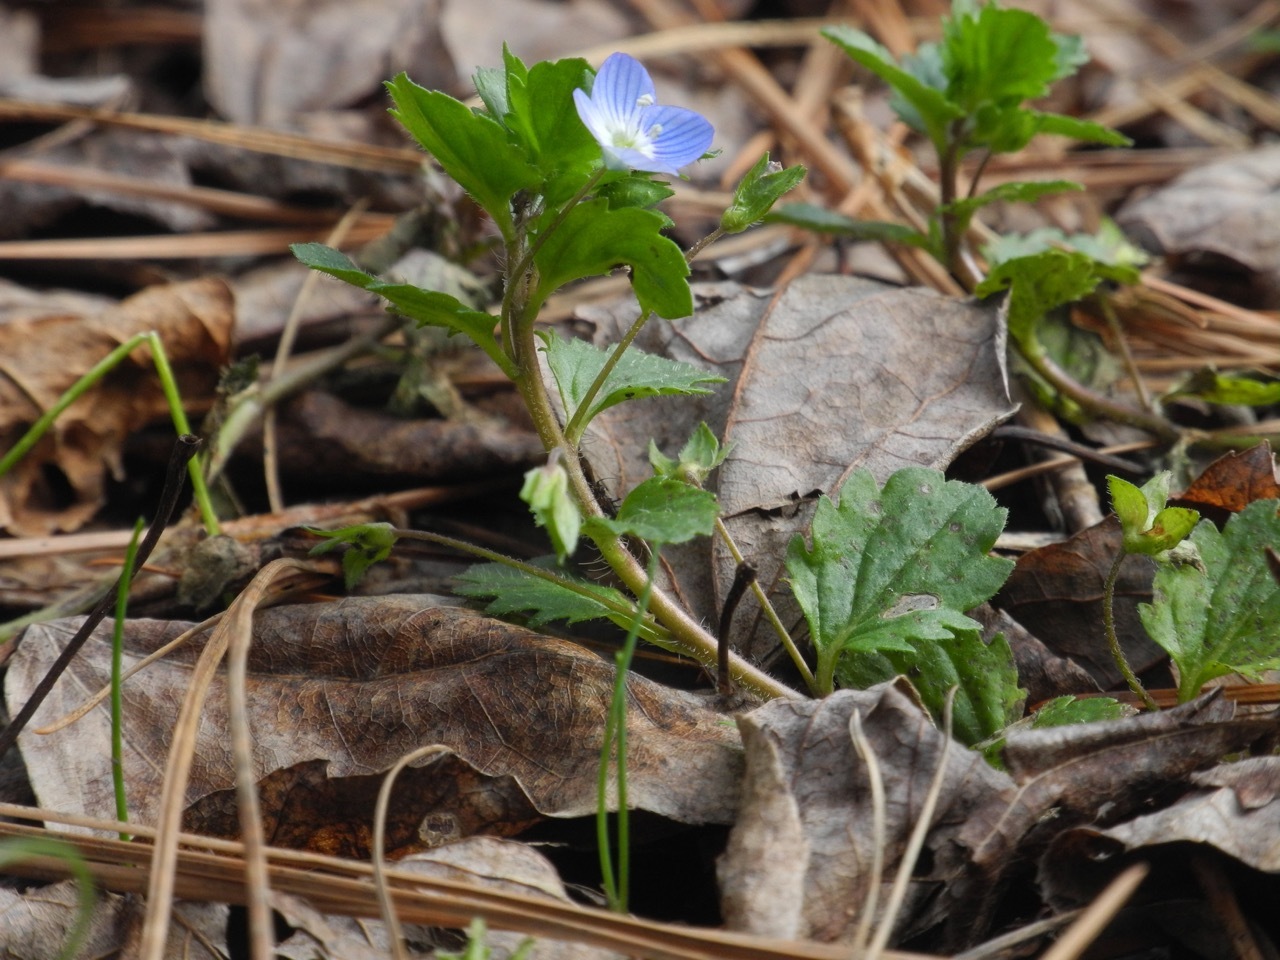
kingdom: Plantae
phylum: Tracheophyta
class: Magnoliopsida
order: Lamiales
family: Plantaginaceae
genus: Veronica
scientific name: Veronica persica
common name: Common field-speedwell
